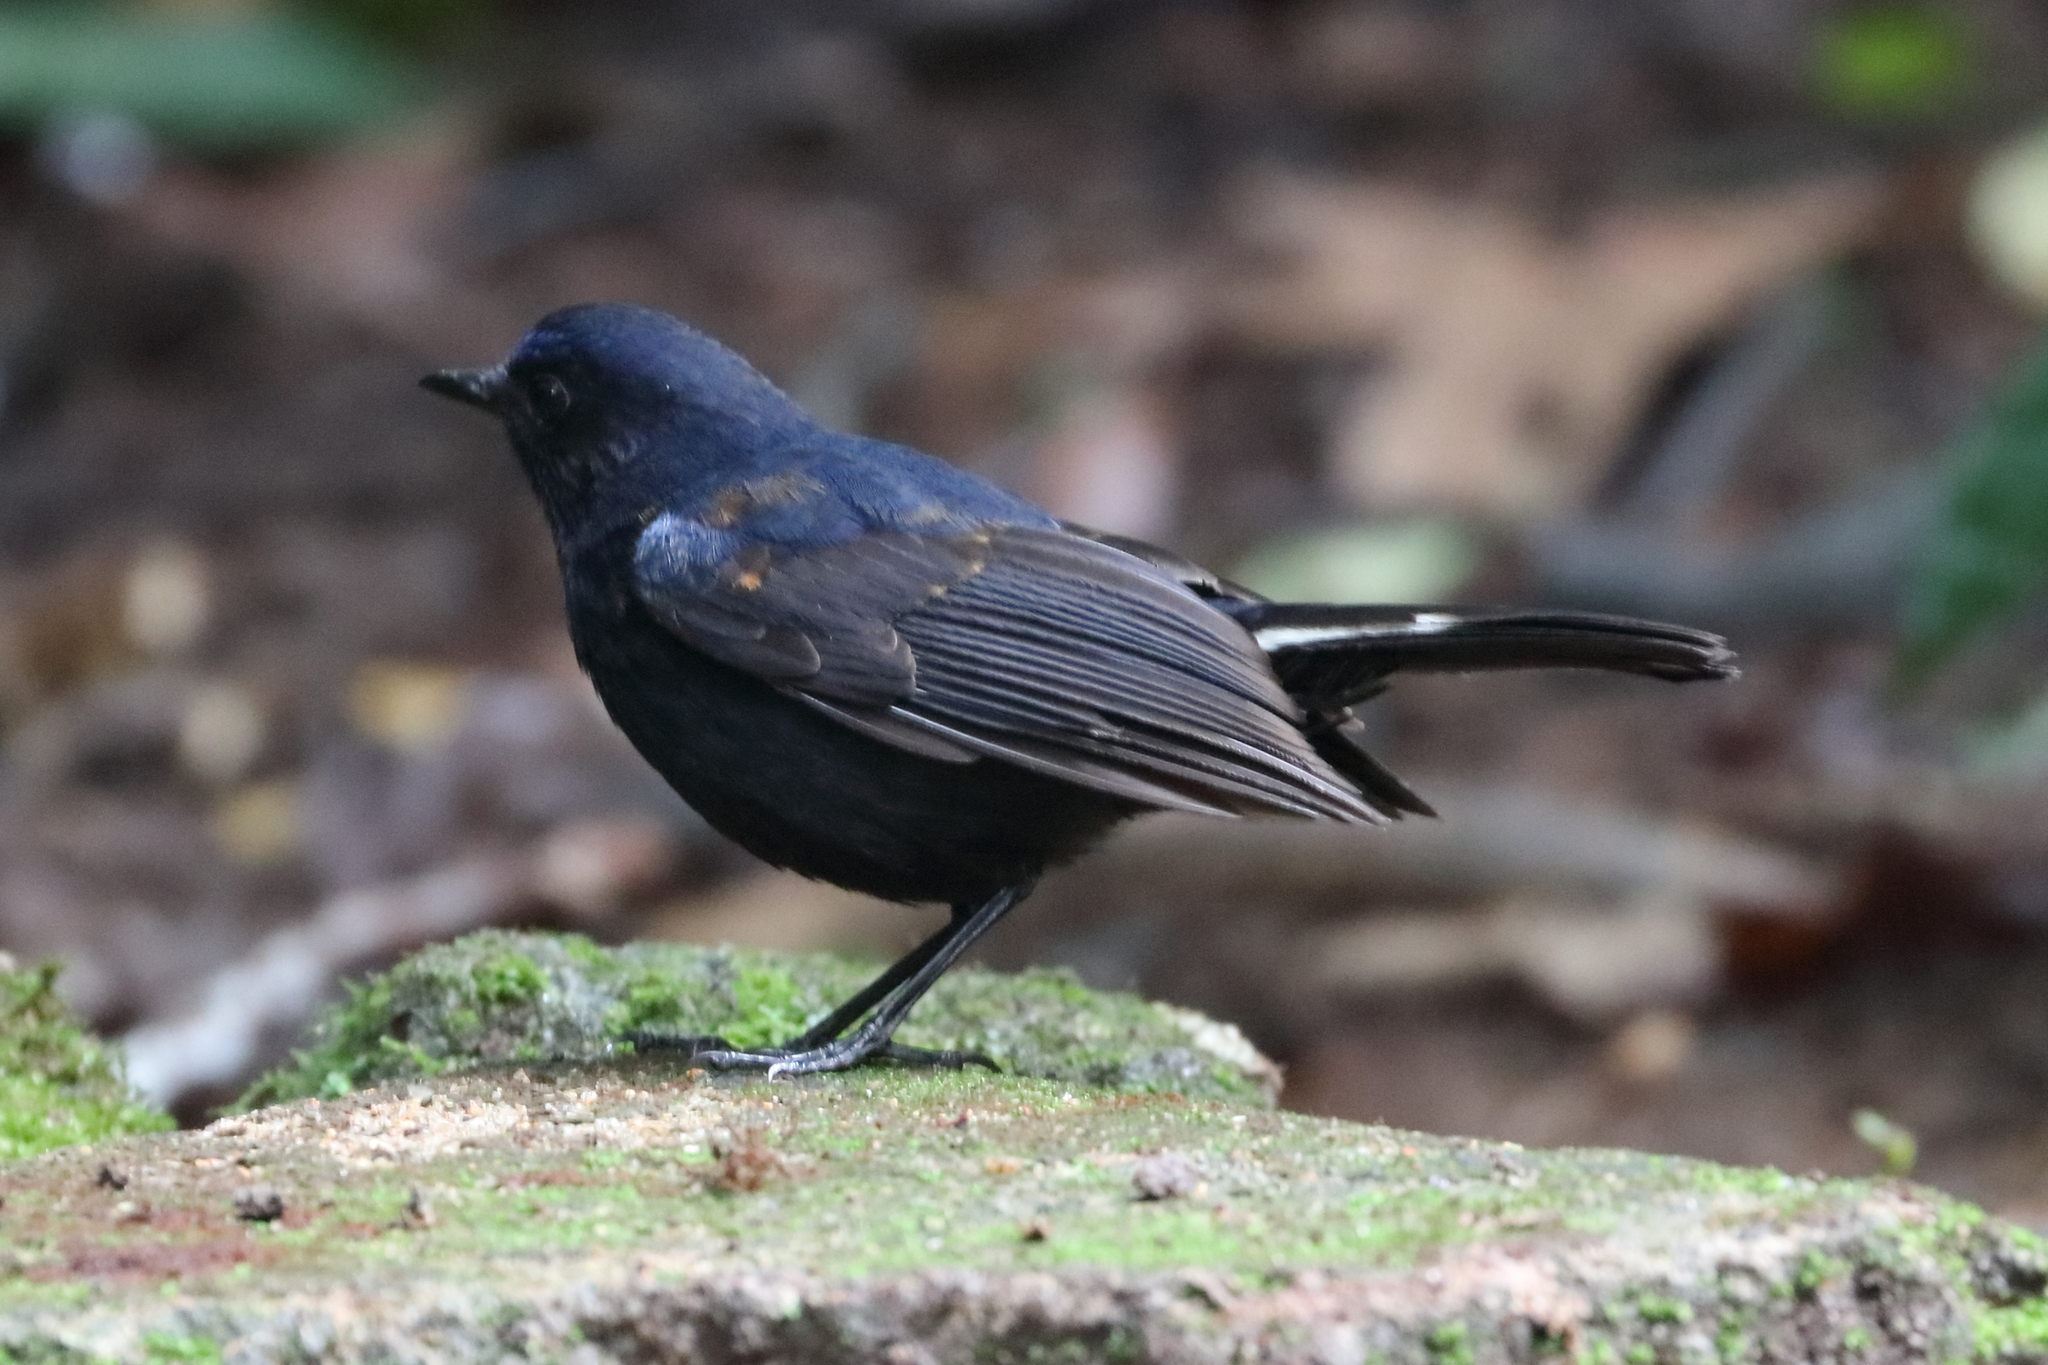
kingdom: Animalia
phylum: Chordata
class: Aves
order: Passeriformes
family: Muscicapidae
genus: Myiomela
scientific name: Myiomela leucura
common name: White-tailed robin
